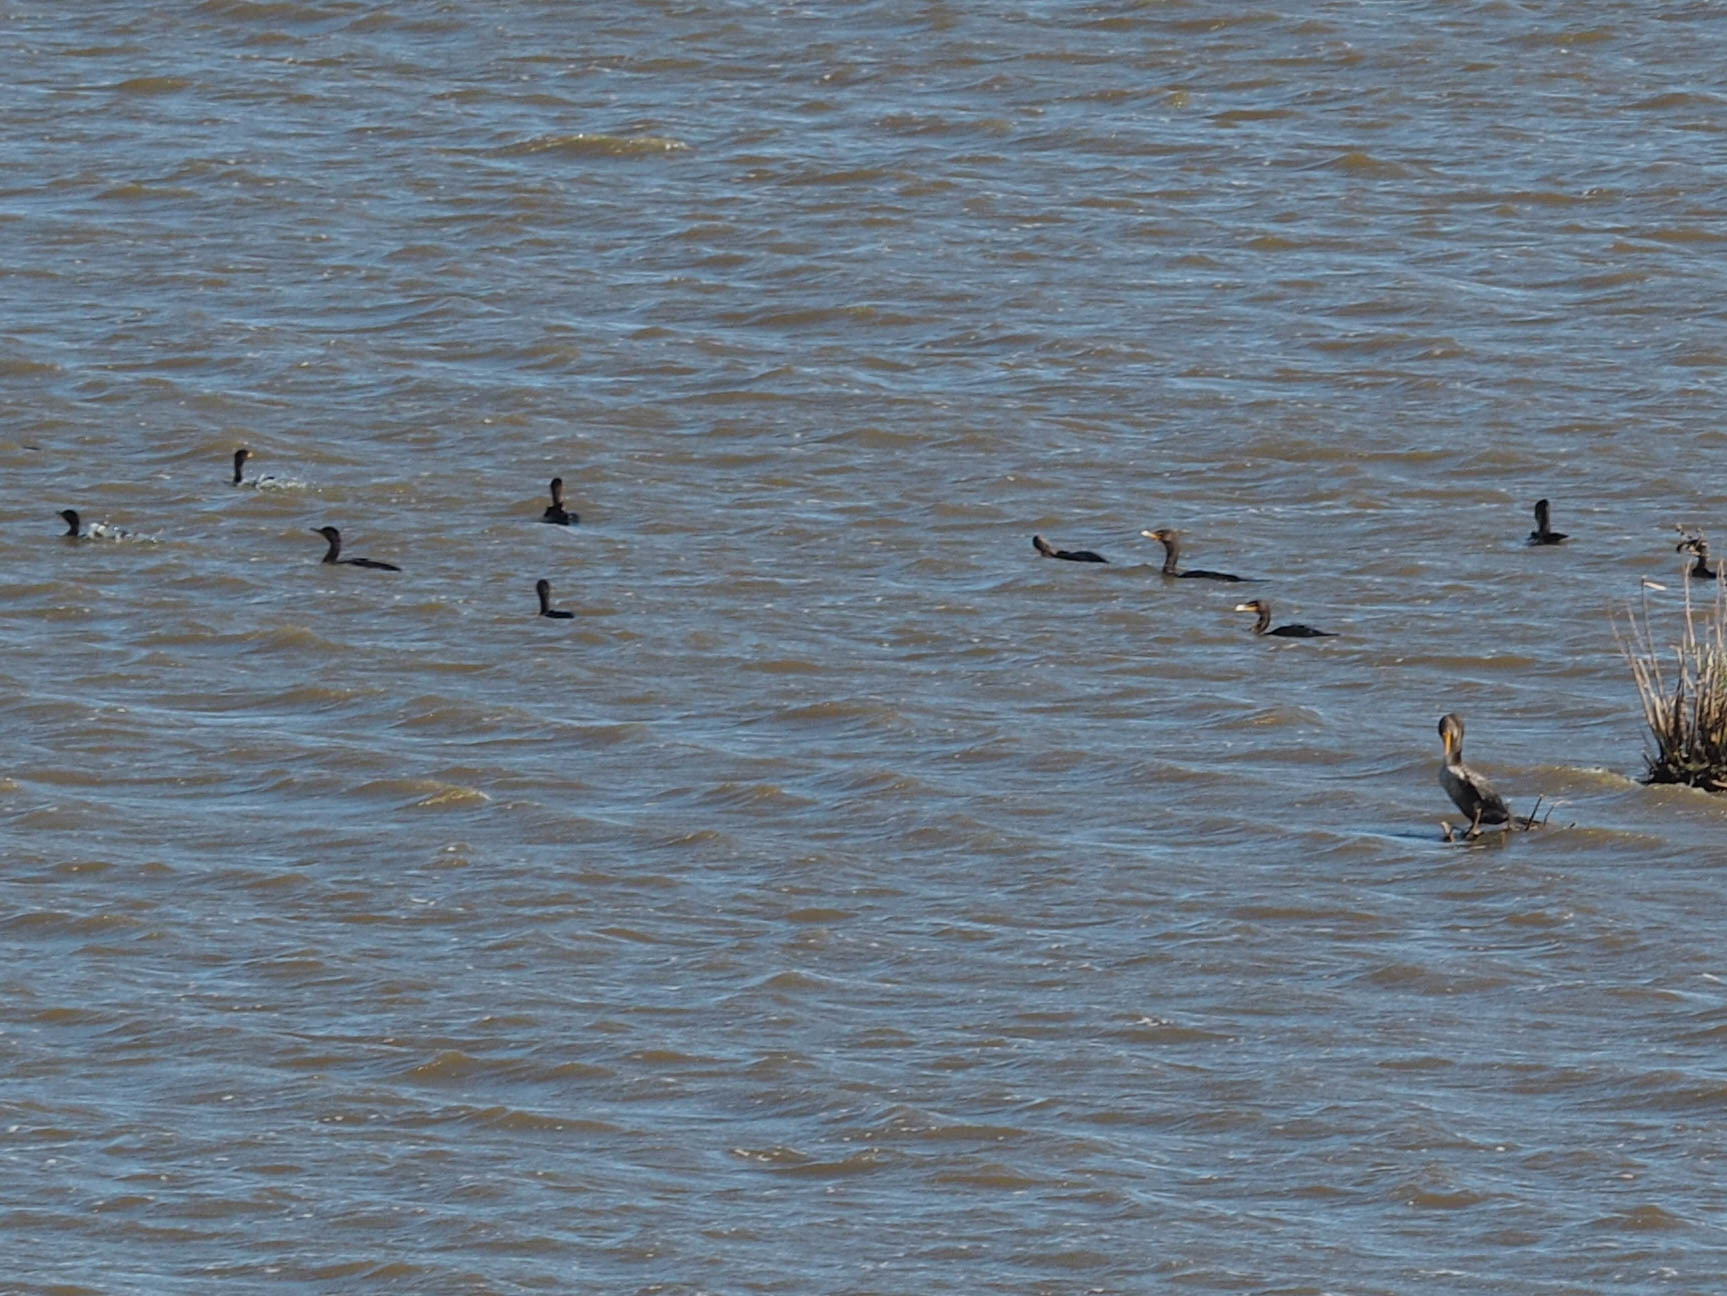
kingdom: Animalia
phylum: Chordata
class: Aves
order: Suliformes
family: Phalacrocoracidae
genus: Phalacrocorax
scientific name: Phalacrocorax auritus
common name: Double-crested cormorant
